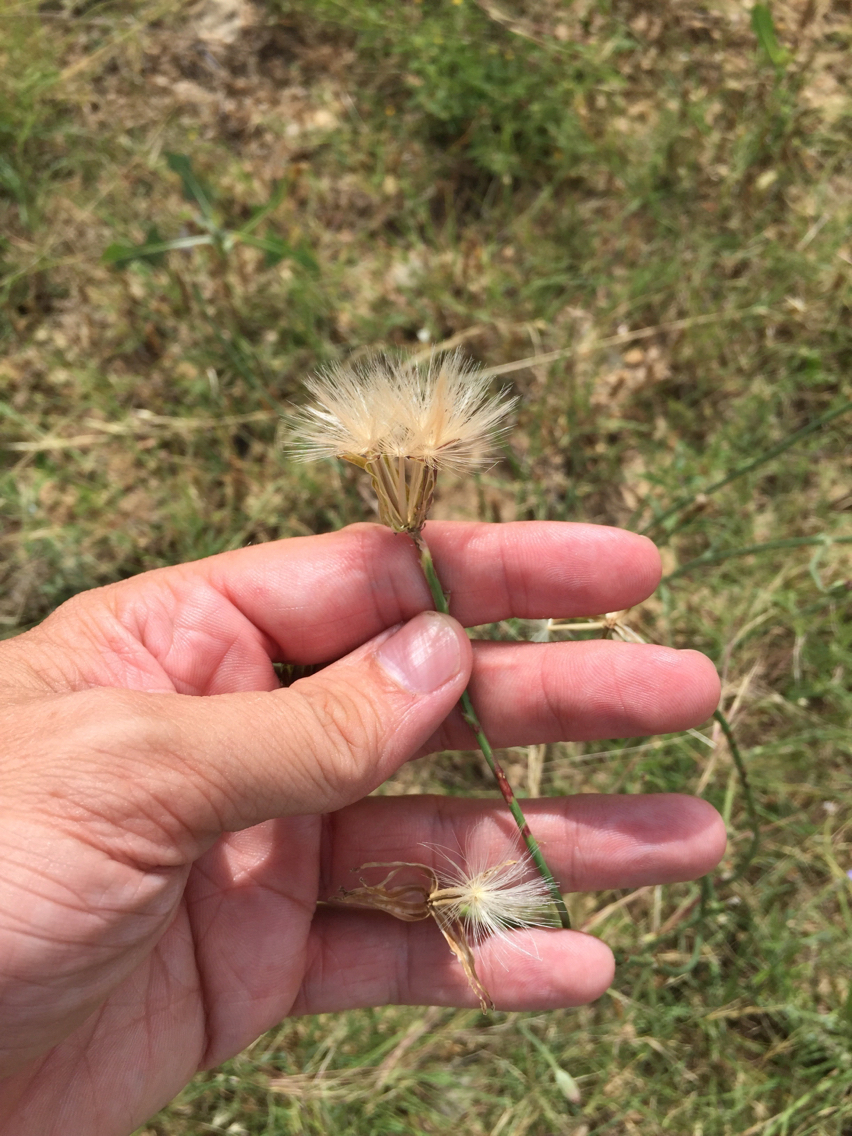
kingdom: Plantae
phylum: Tracheophyta
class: Magnoliopsida
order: Asterales
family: Asteraceae
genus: Lygodesmia
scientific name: Lygodesmia texana
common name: Texas skeleton-plant
